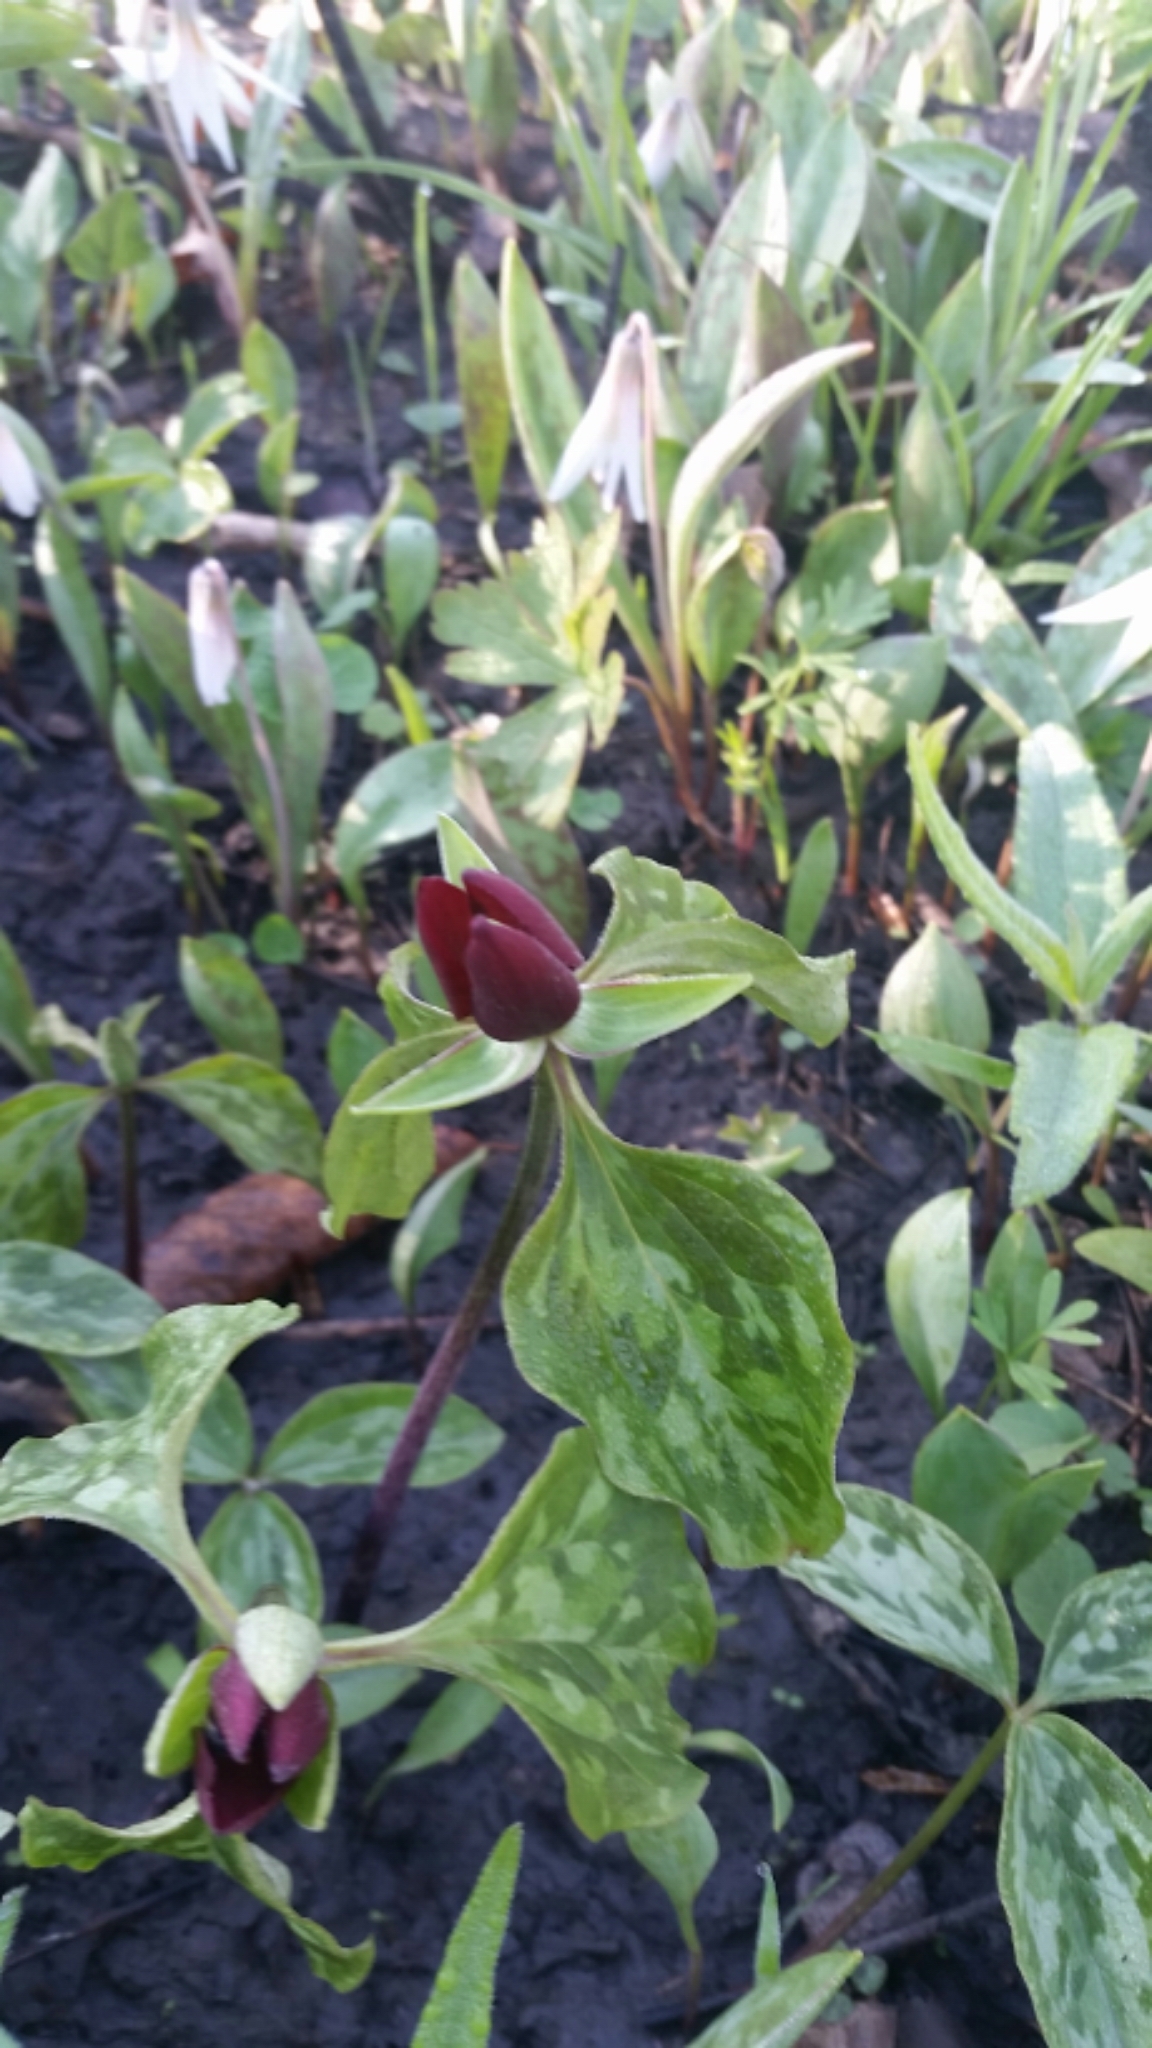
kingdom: Plantae
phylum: Tracheophyta
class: Liliopsida
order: Liliales
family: Melanthiaceae
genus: Trillium
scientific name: Trillium recurvatum
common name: Bloody butcher
